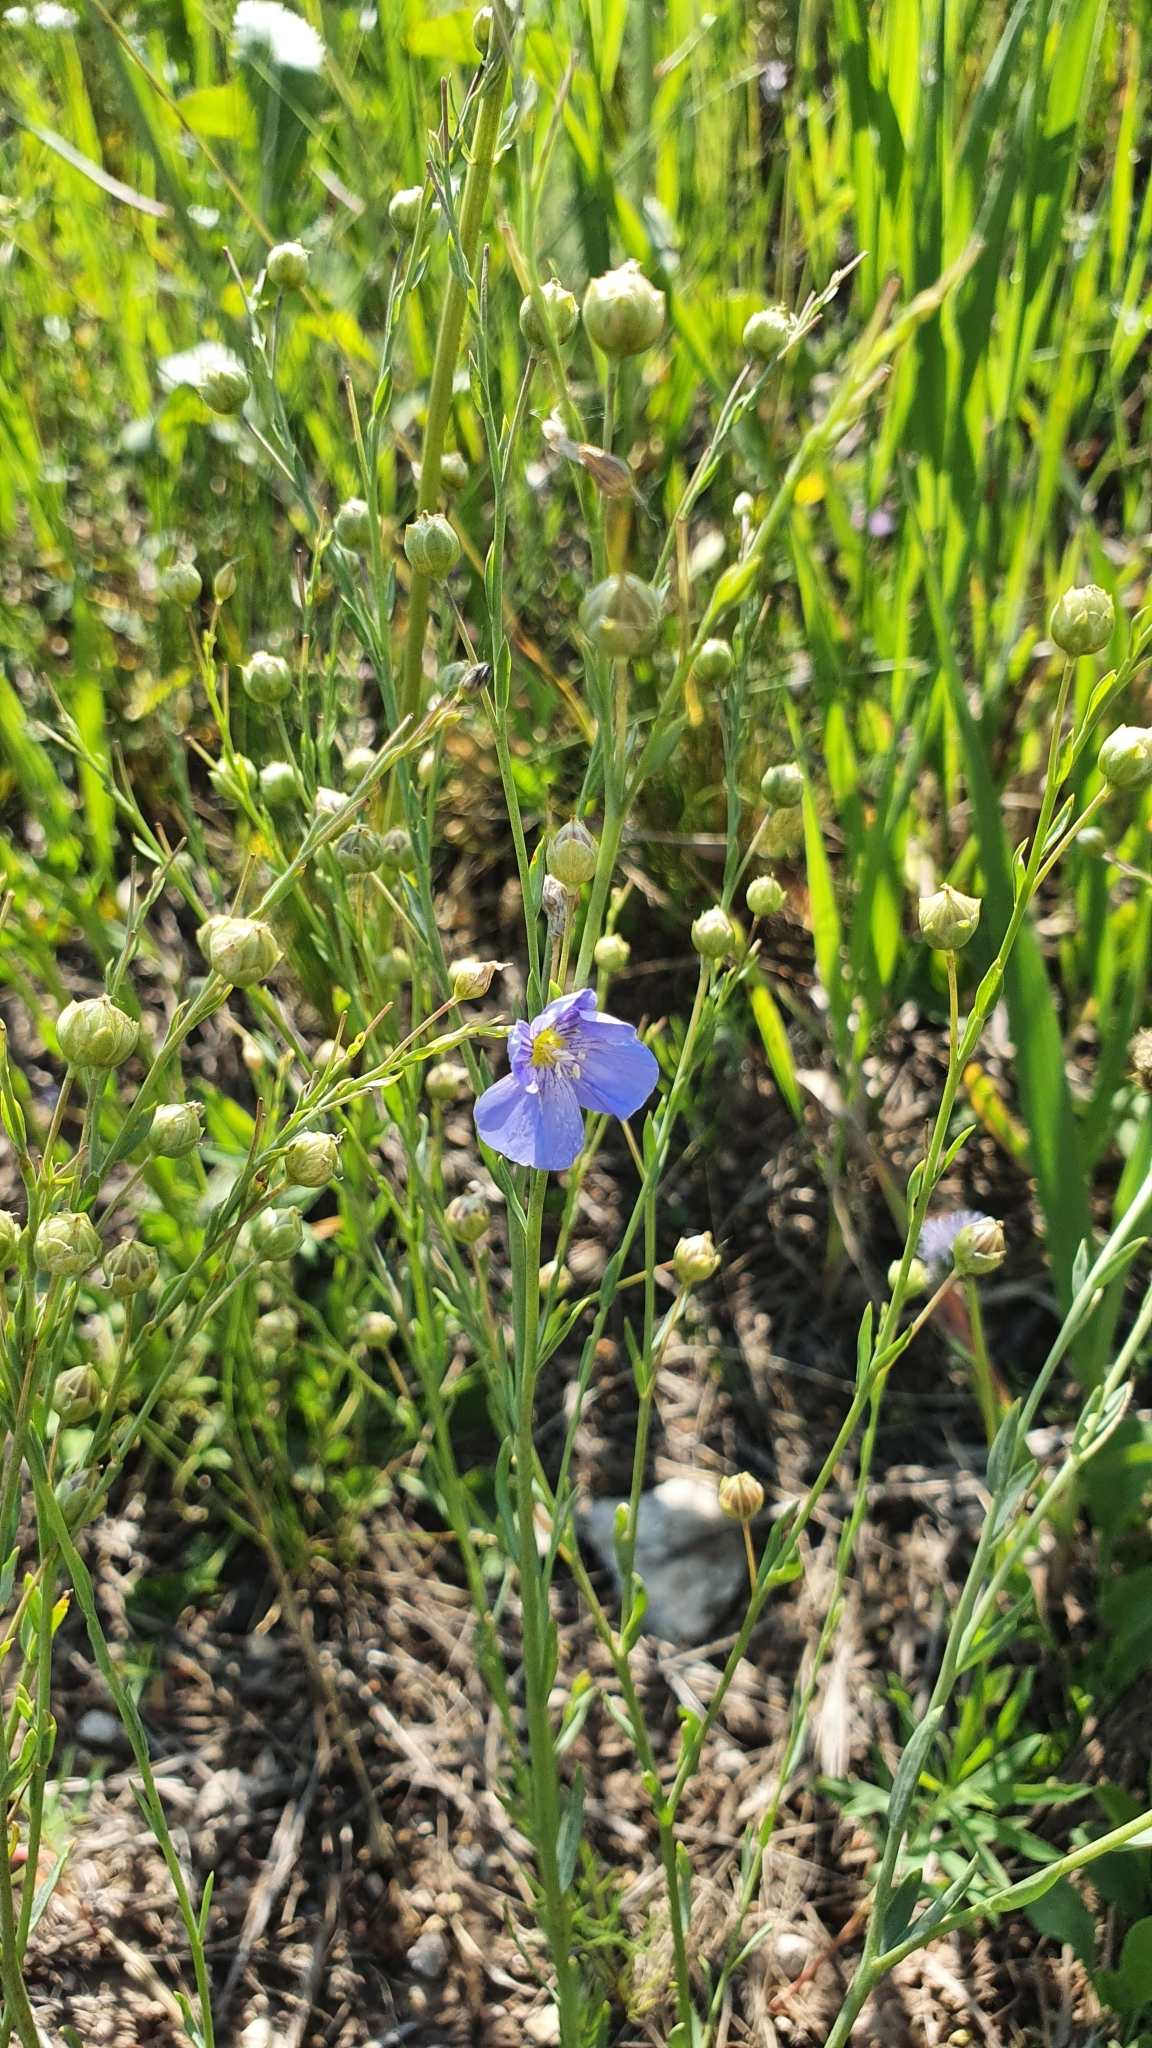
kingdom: Plantae
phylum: Tracheophyta
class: Magnoliopsida
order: Malpighiales
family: Linaceae
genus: Linum
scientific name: Linum perenne
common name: Blue flax
